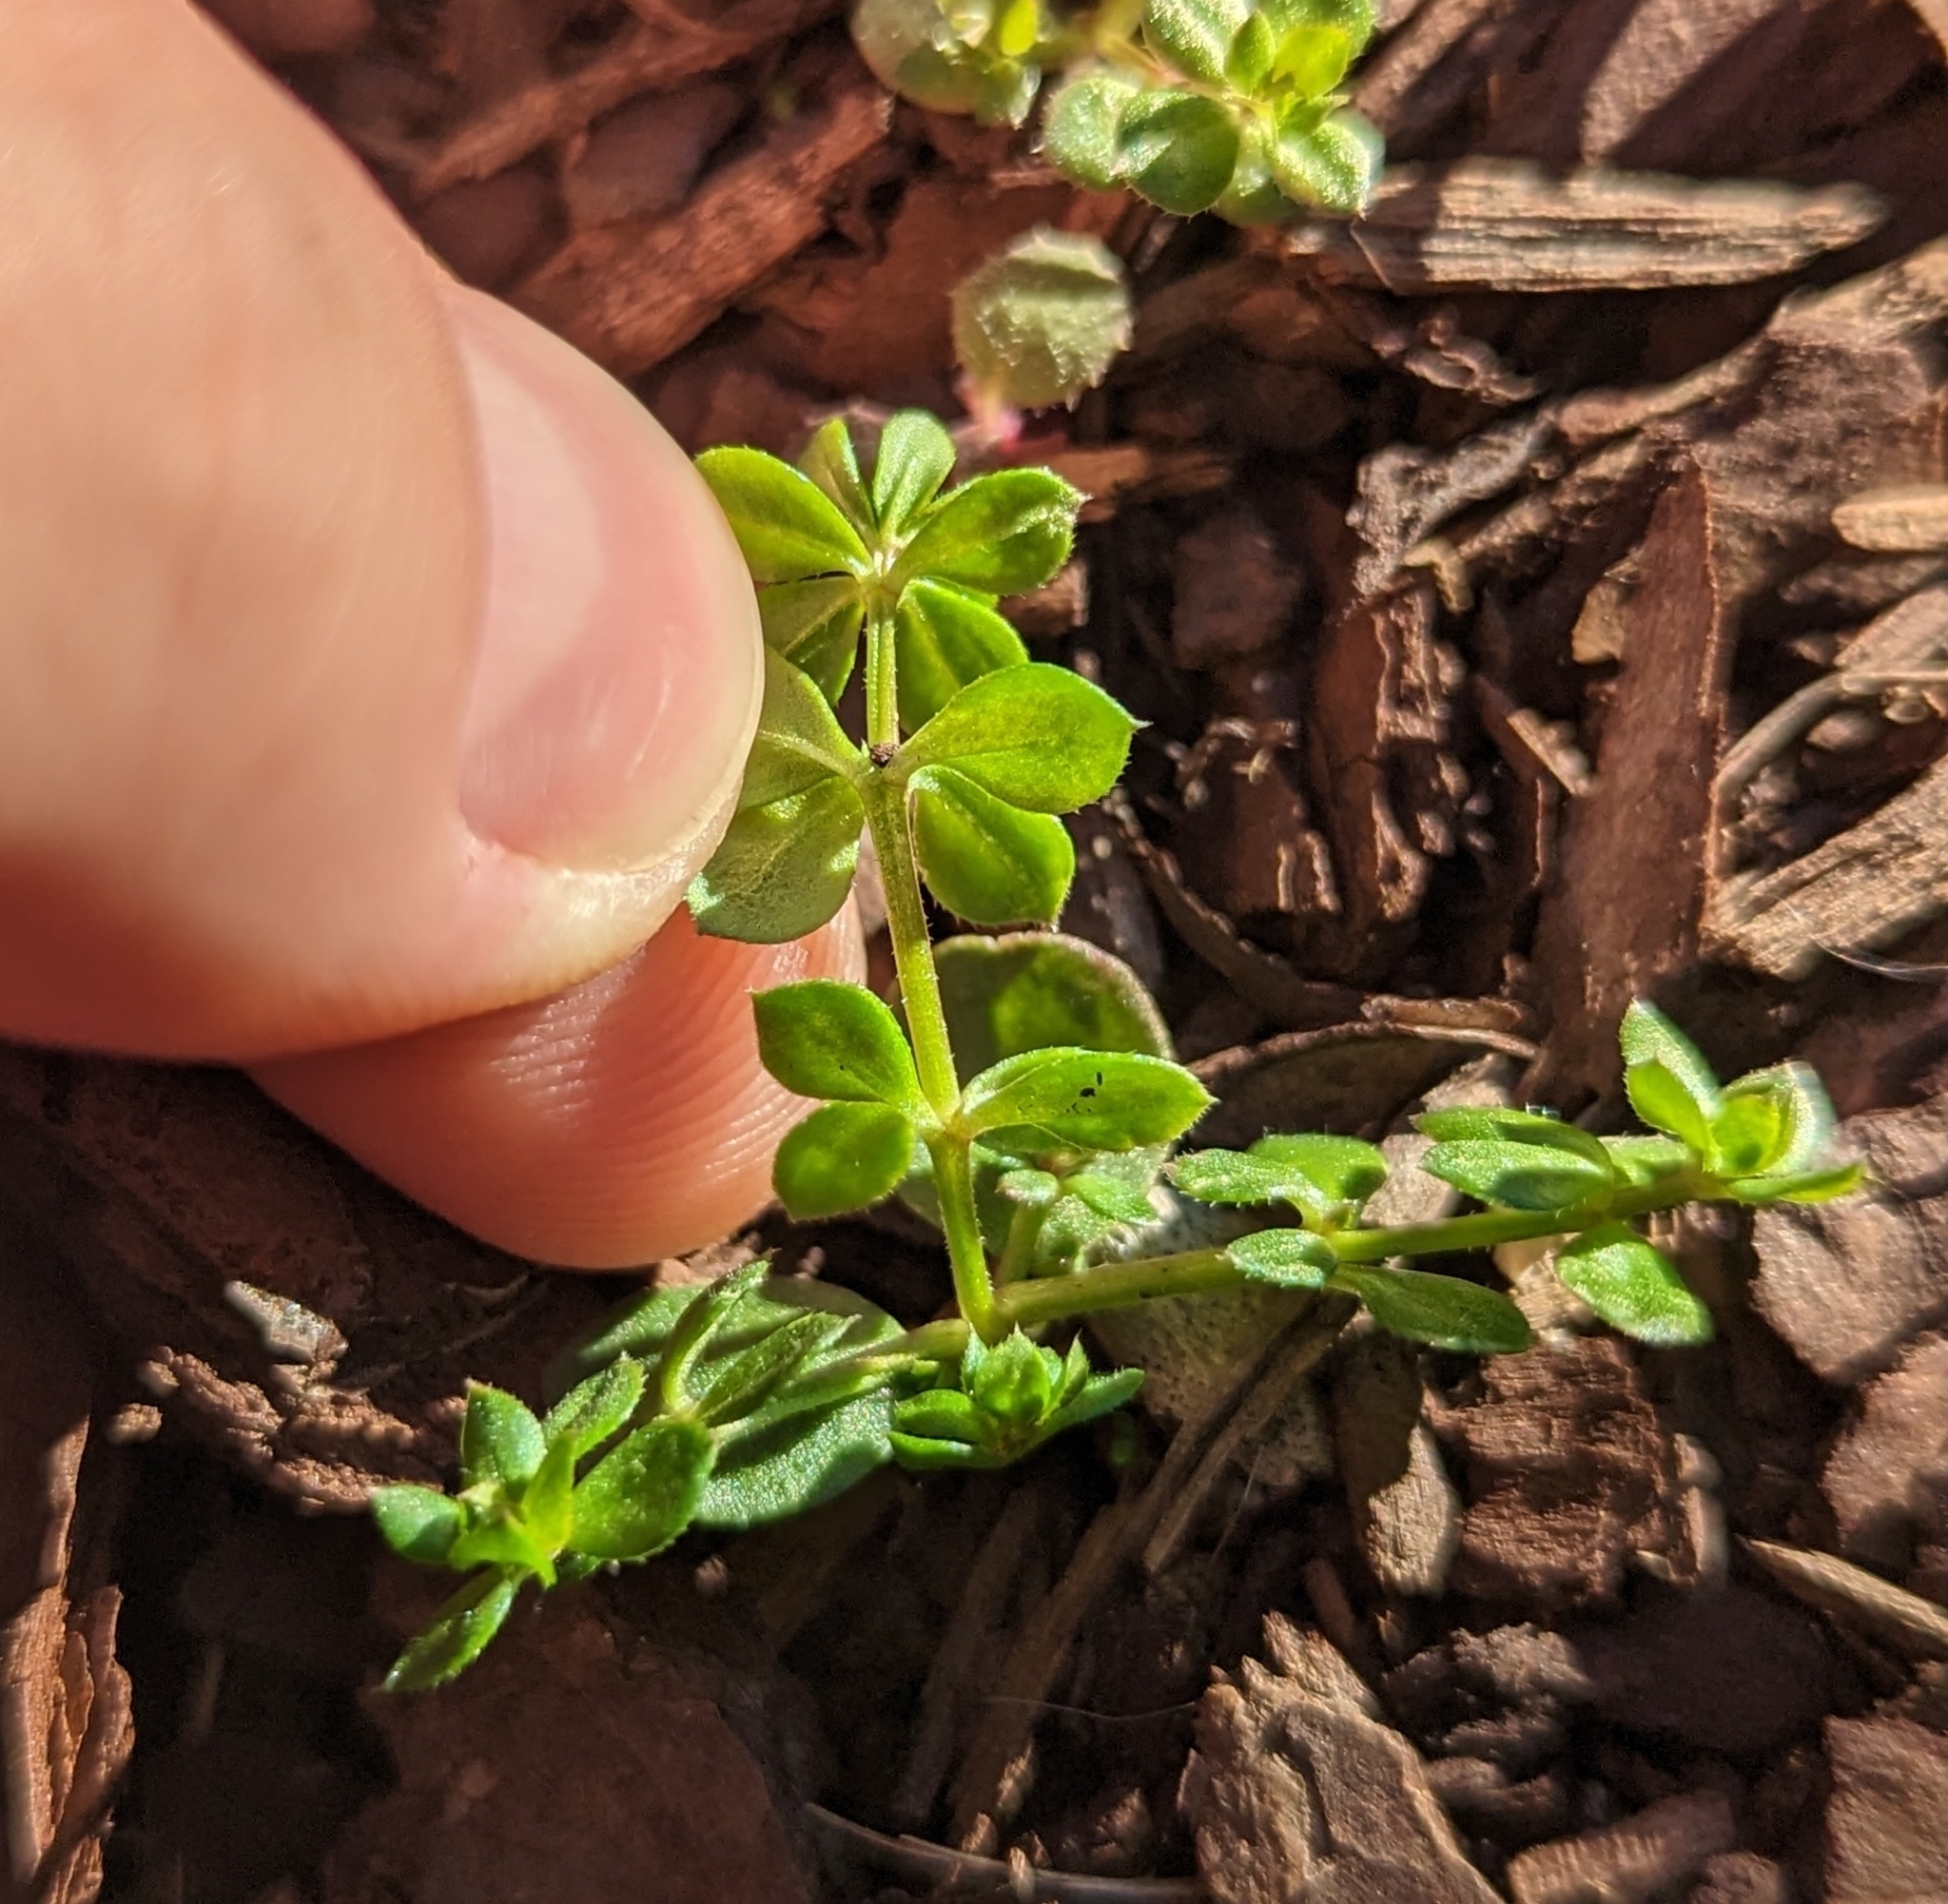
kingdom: Plantae
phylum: Tracheophyta
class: Magnoliopsida
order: Gentianales
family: Rubiaceae
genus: Sherardia
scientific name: Sherardia arvensis
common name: Field madder
